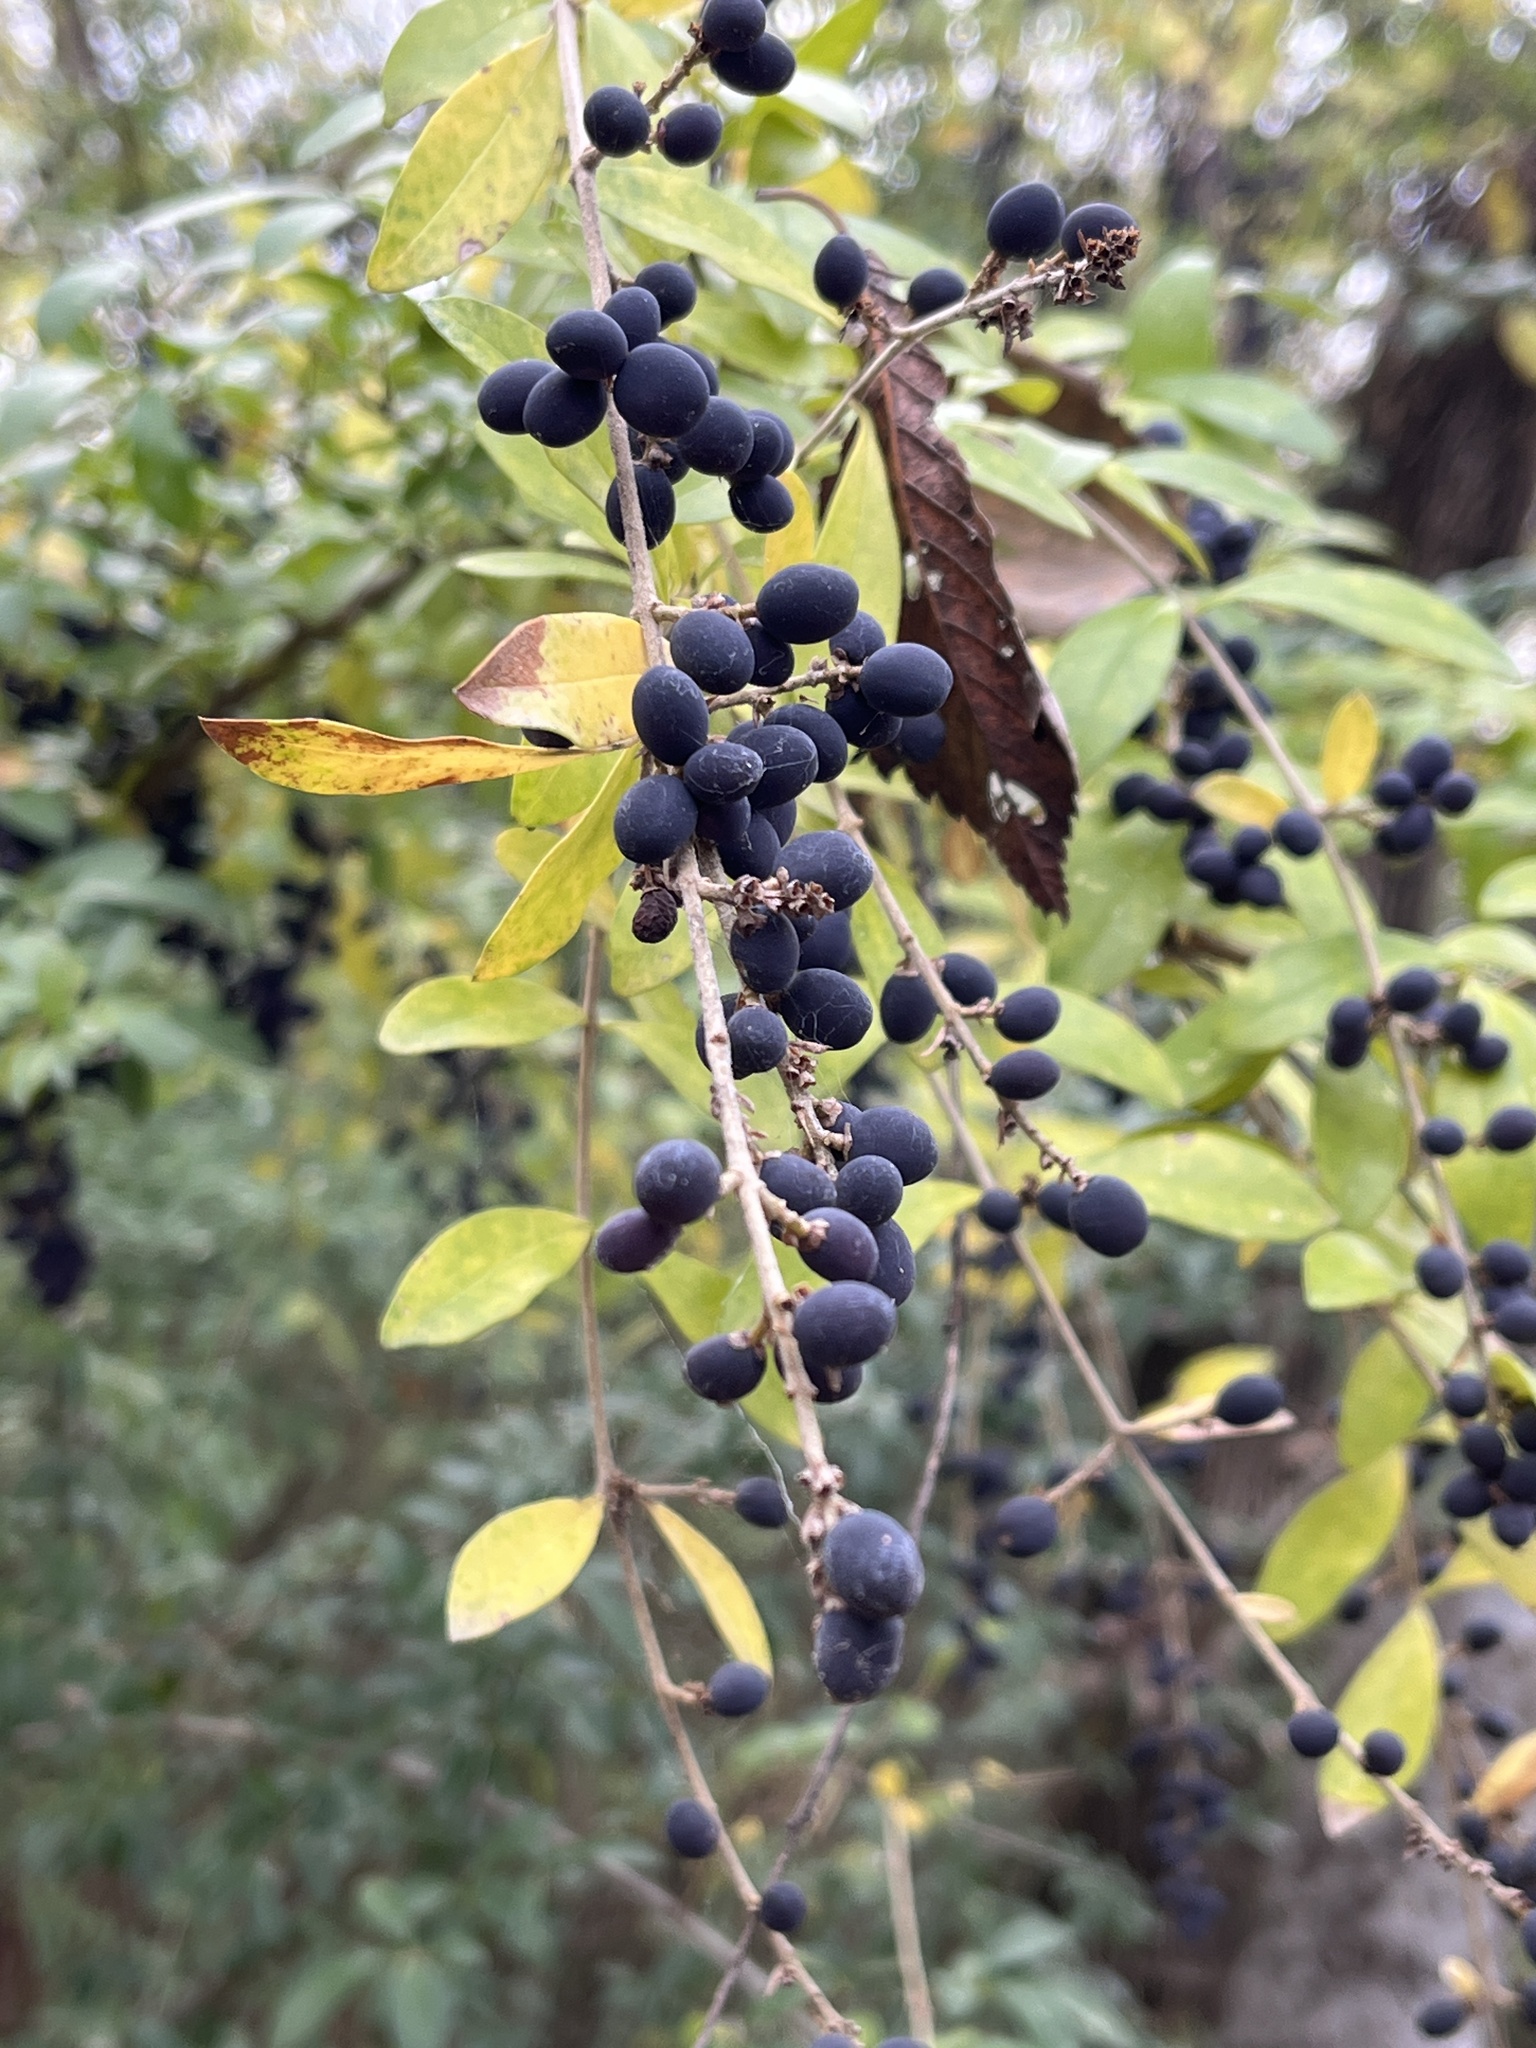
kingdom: Plantae
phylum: Tracheophyta
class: Magnoliopsida
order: Lamiales
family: Oleaceae
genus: Ligustrum
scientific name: Ligustrum quihoui
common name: Waxyleaf privet
